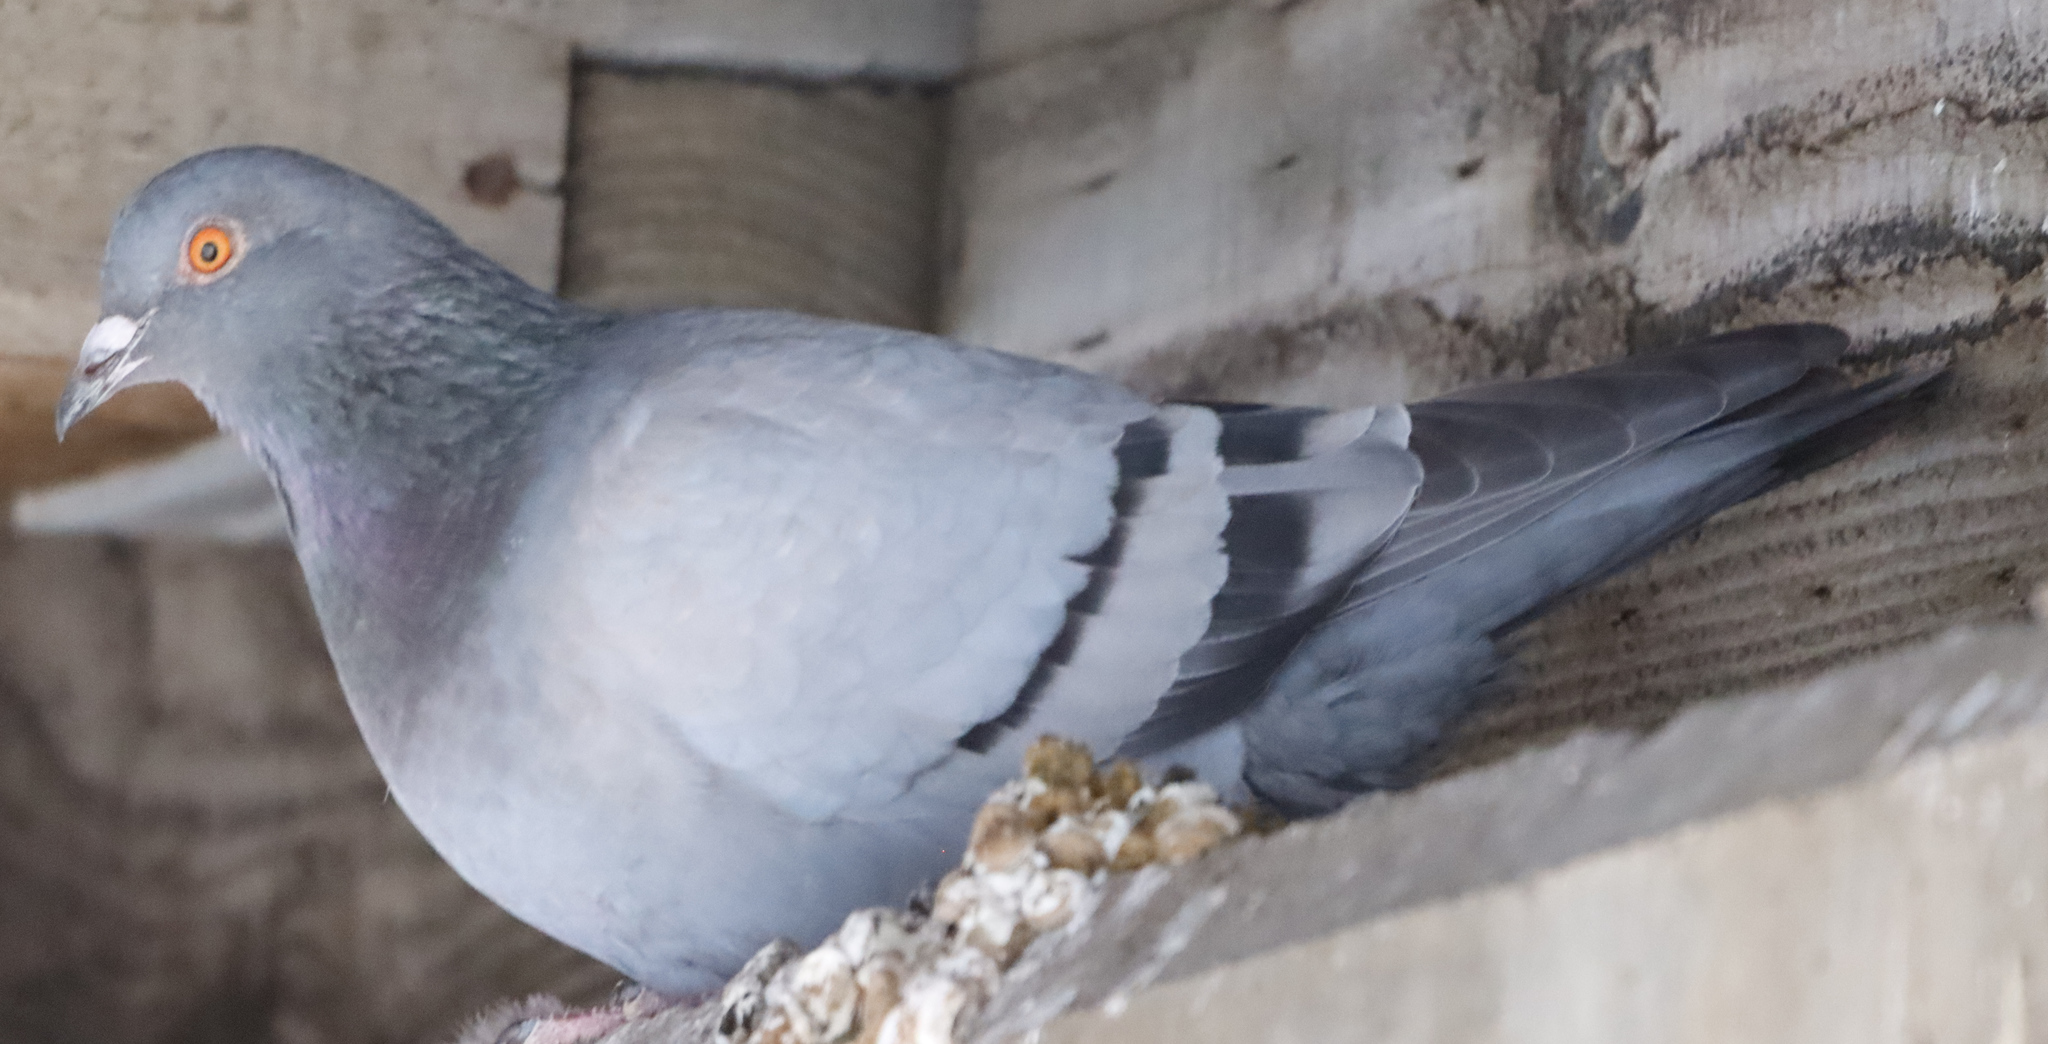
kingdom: Animalia
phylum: Chordata
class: Aves
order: Columbiformes
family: Columbidae
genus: Columba
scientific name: Columba livia
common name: Rock pigeon
